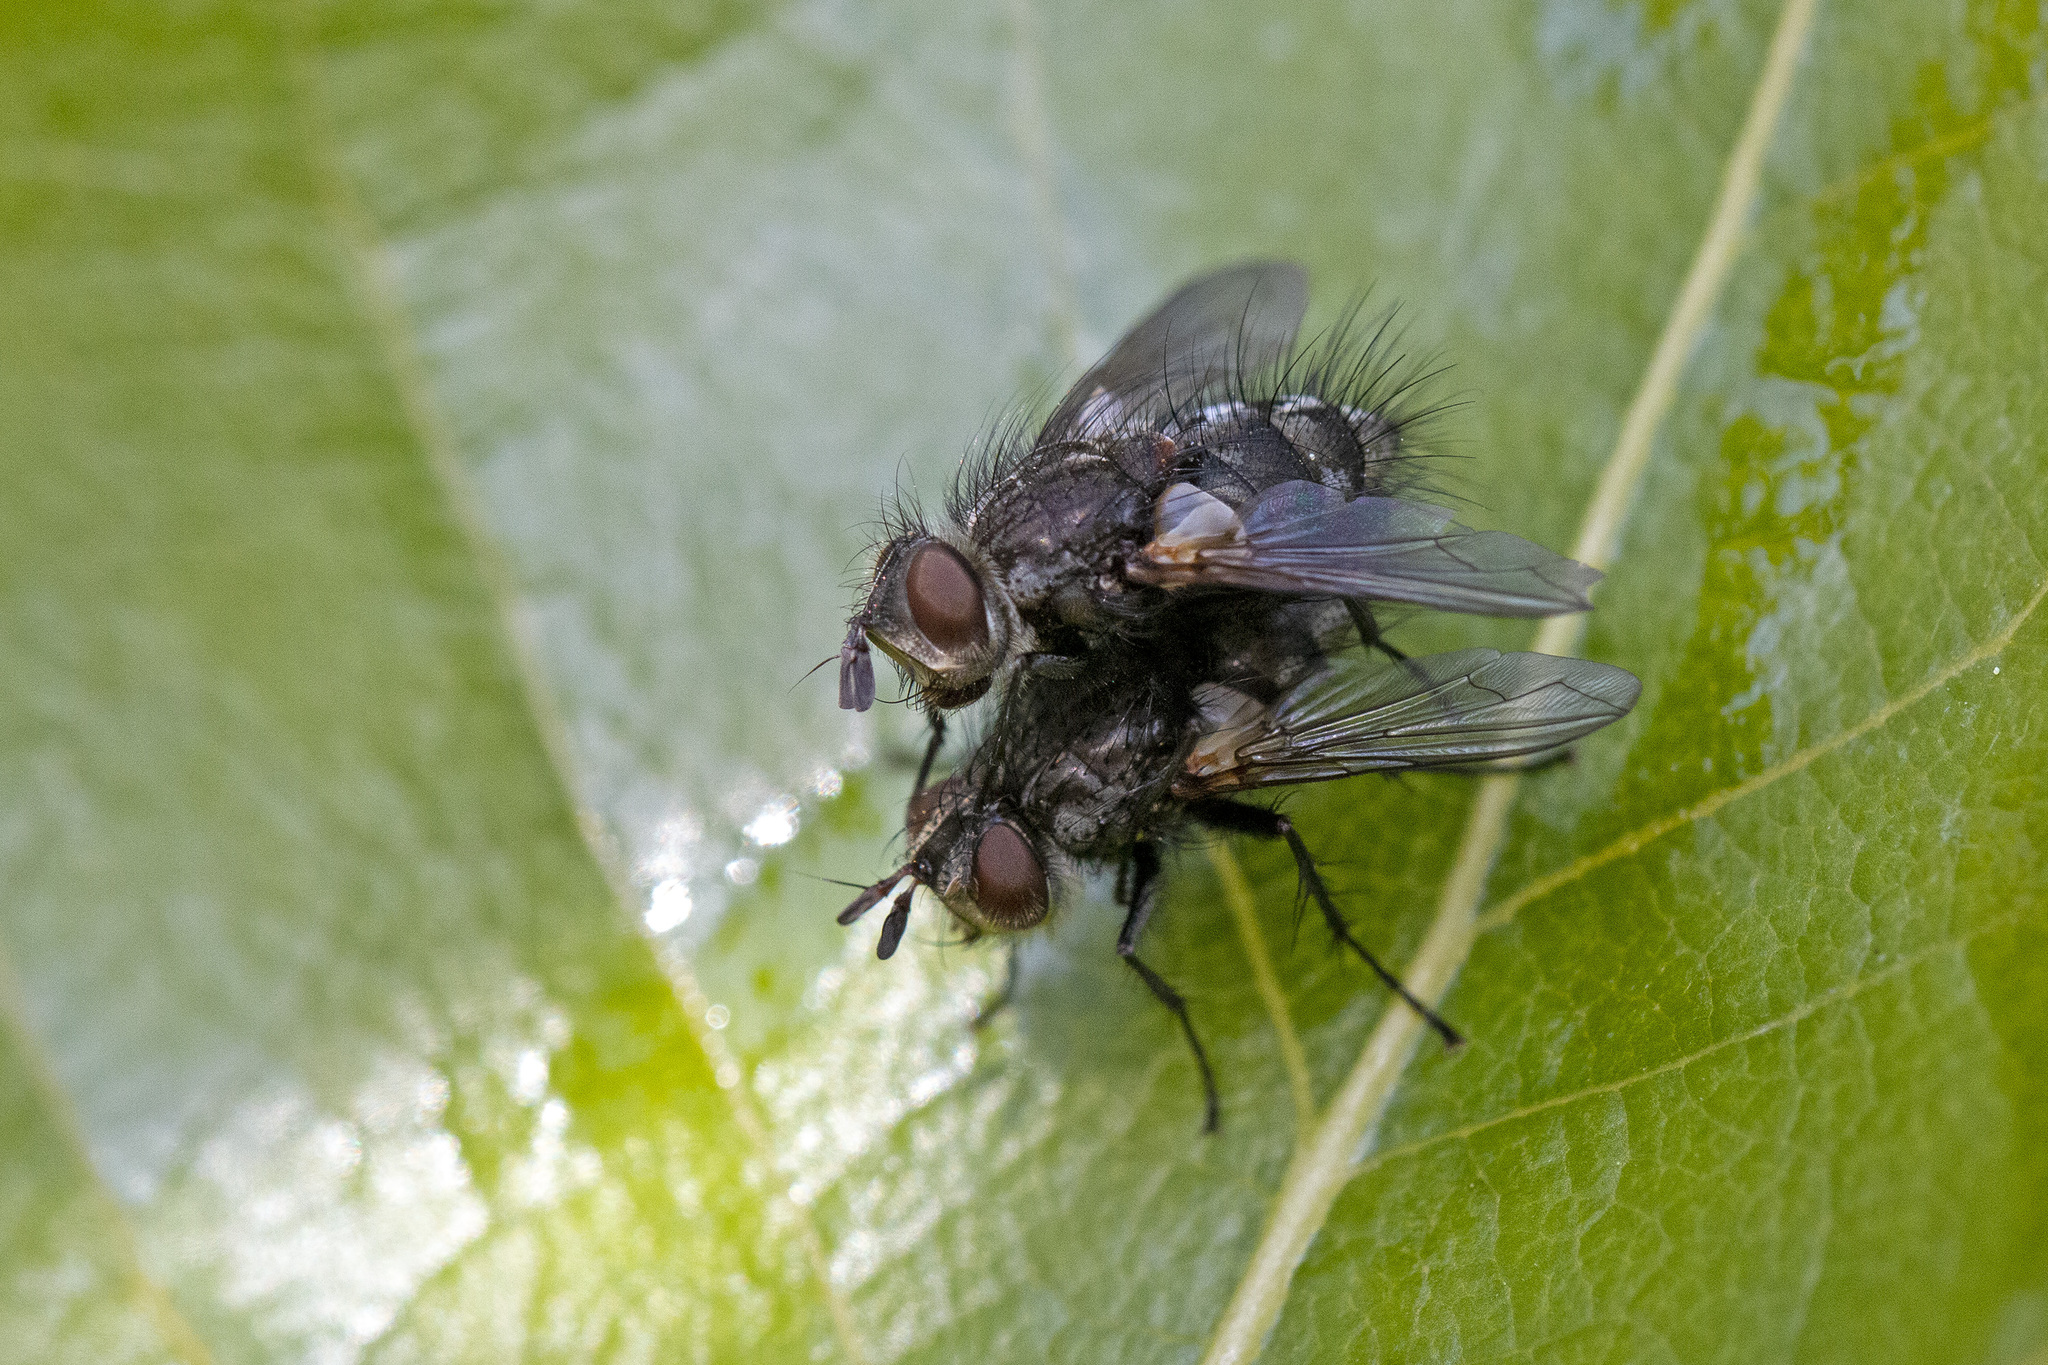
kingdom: Animalia
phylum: Arthropoda
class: Insecta
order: Diptera
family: Tachinidae
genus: Smidtia
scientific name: Smidtia conspersa
